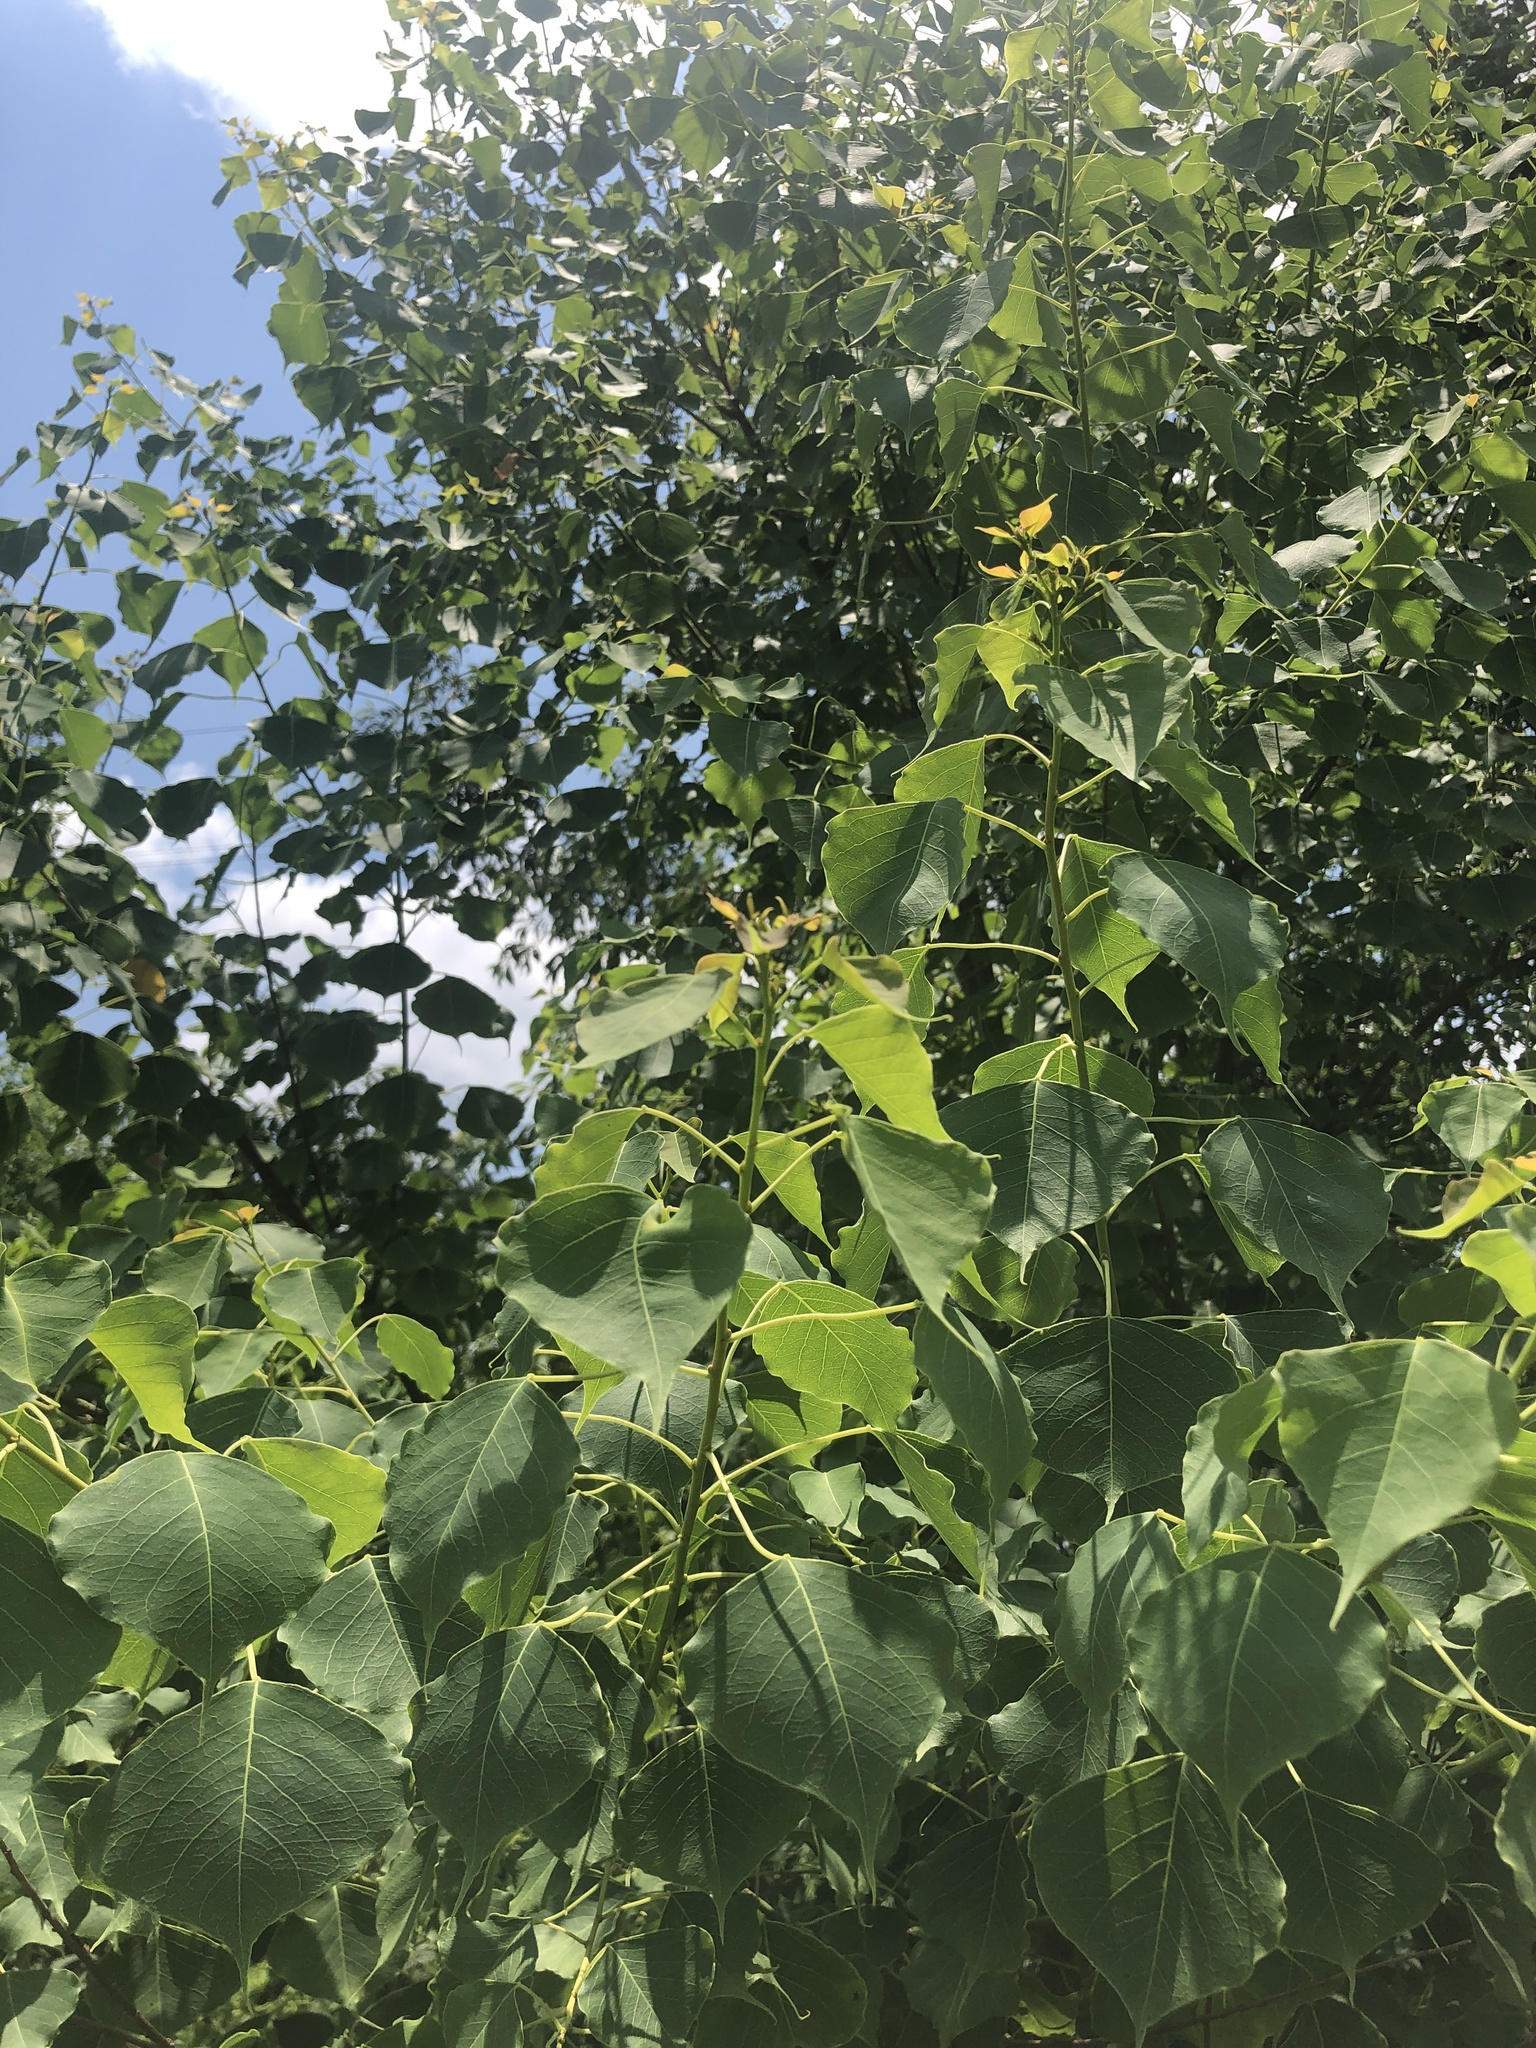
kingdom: Plantae
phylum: Tracheophyta
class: Magnoliopsida
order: Malpighiales
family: Euphorbiaceae
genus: Triadica
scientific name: Triadica sebifera
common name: Chinese tallow
